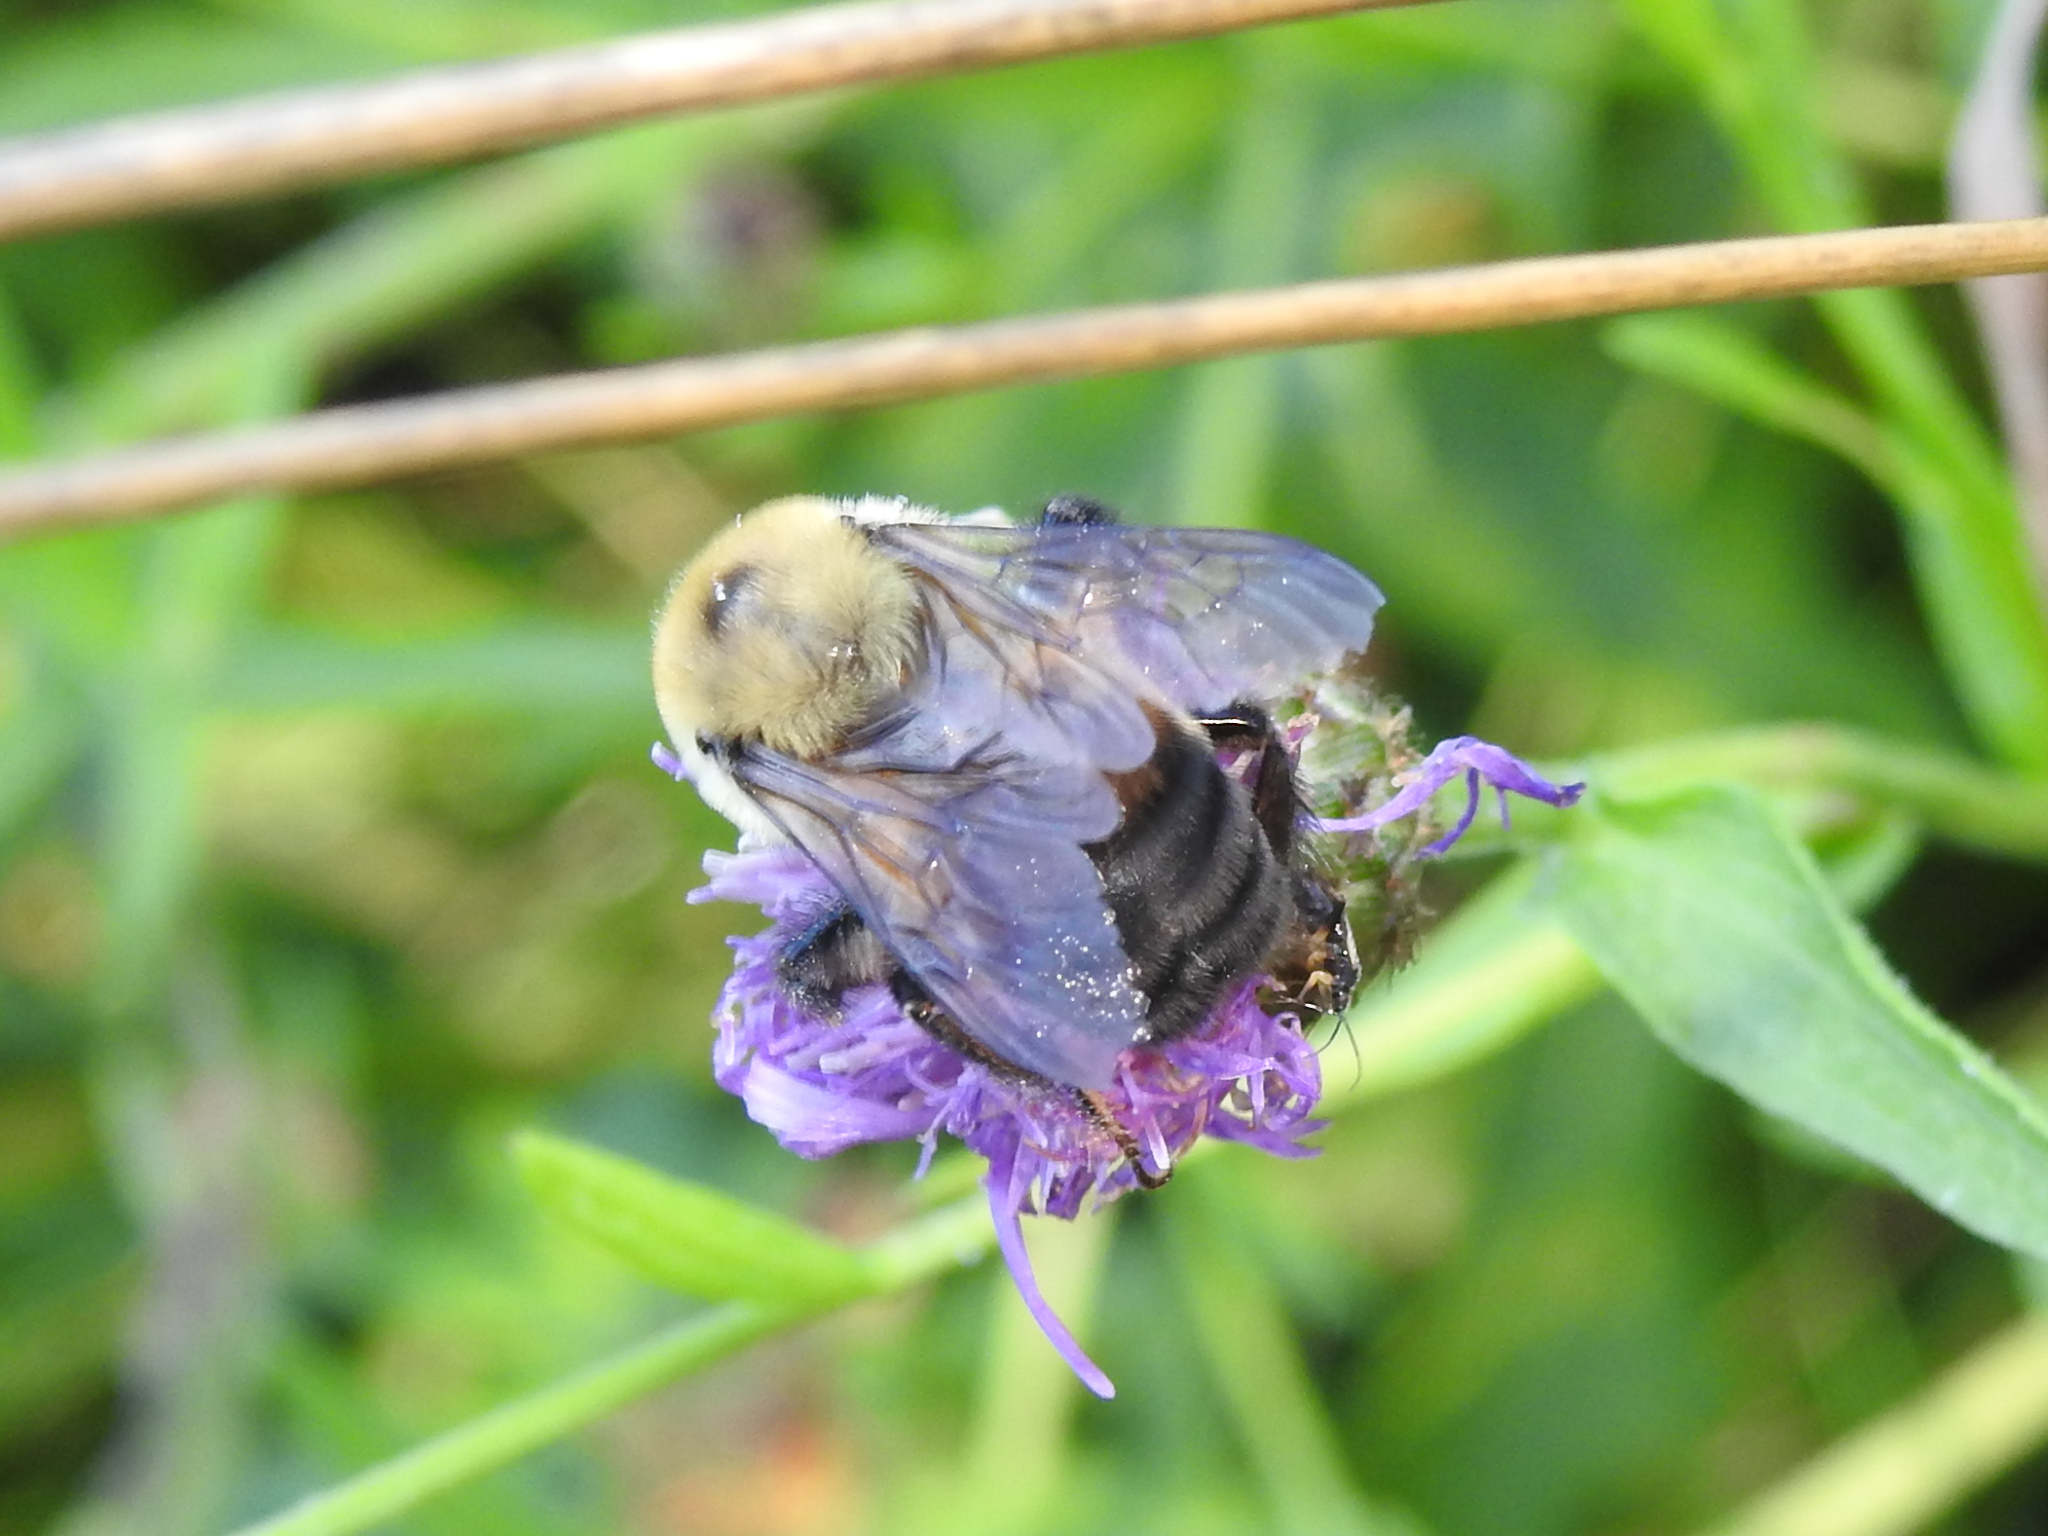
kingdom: Animalia
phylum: Arthropoda
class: Insecta
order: Hymenoptera
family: Apidae
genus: Bombus
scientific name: Bombus griseocollis
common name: Brown-belted bumble bee
